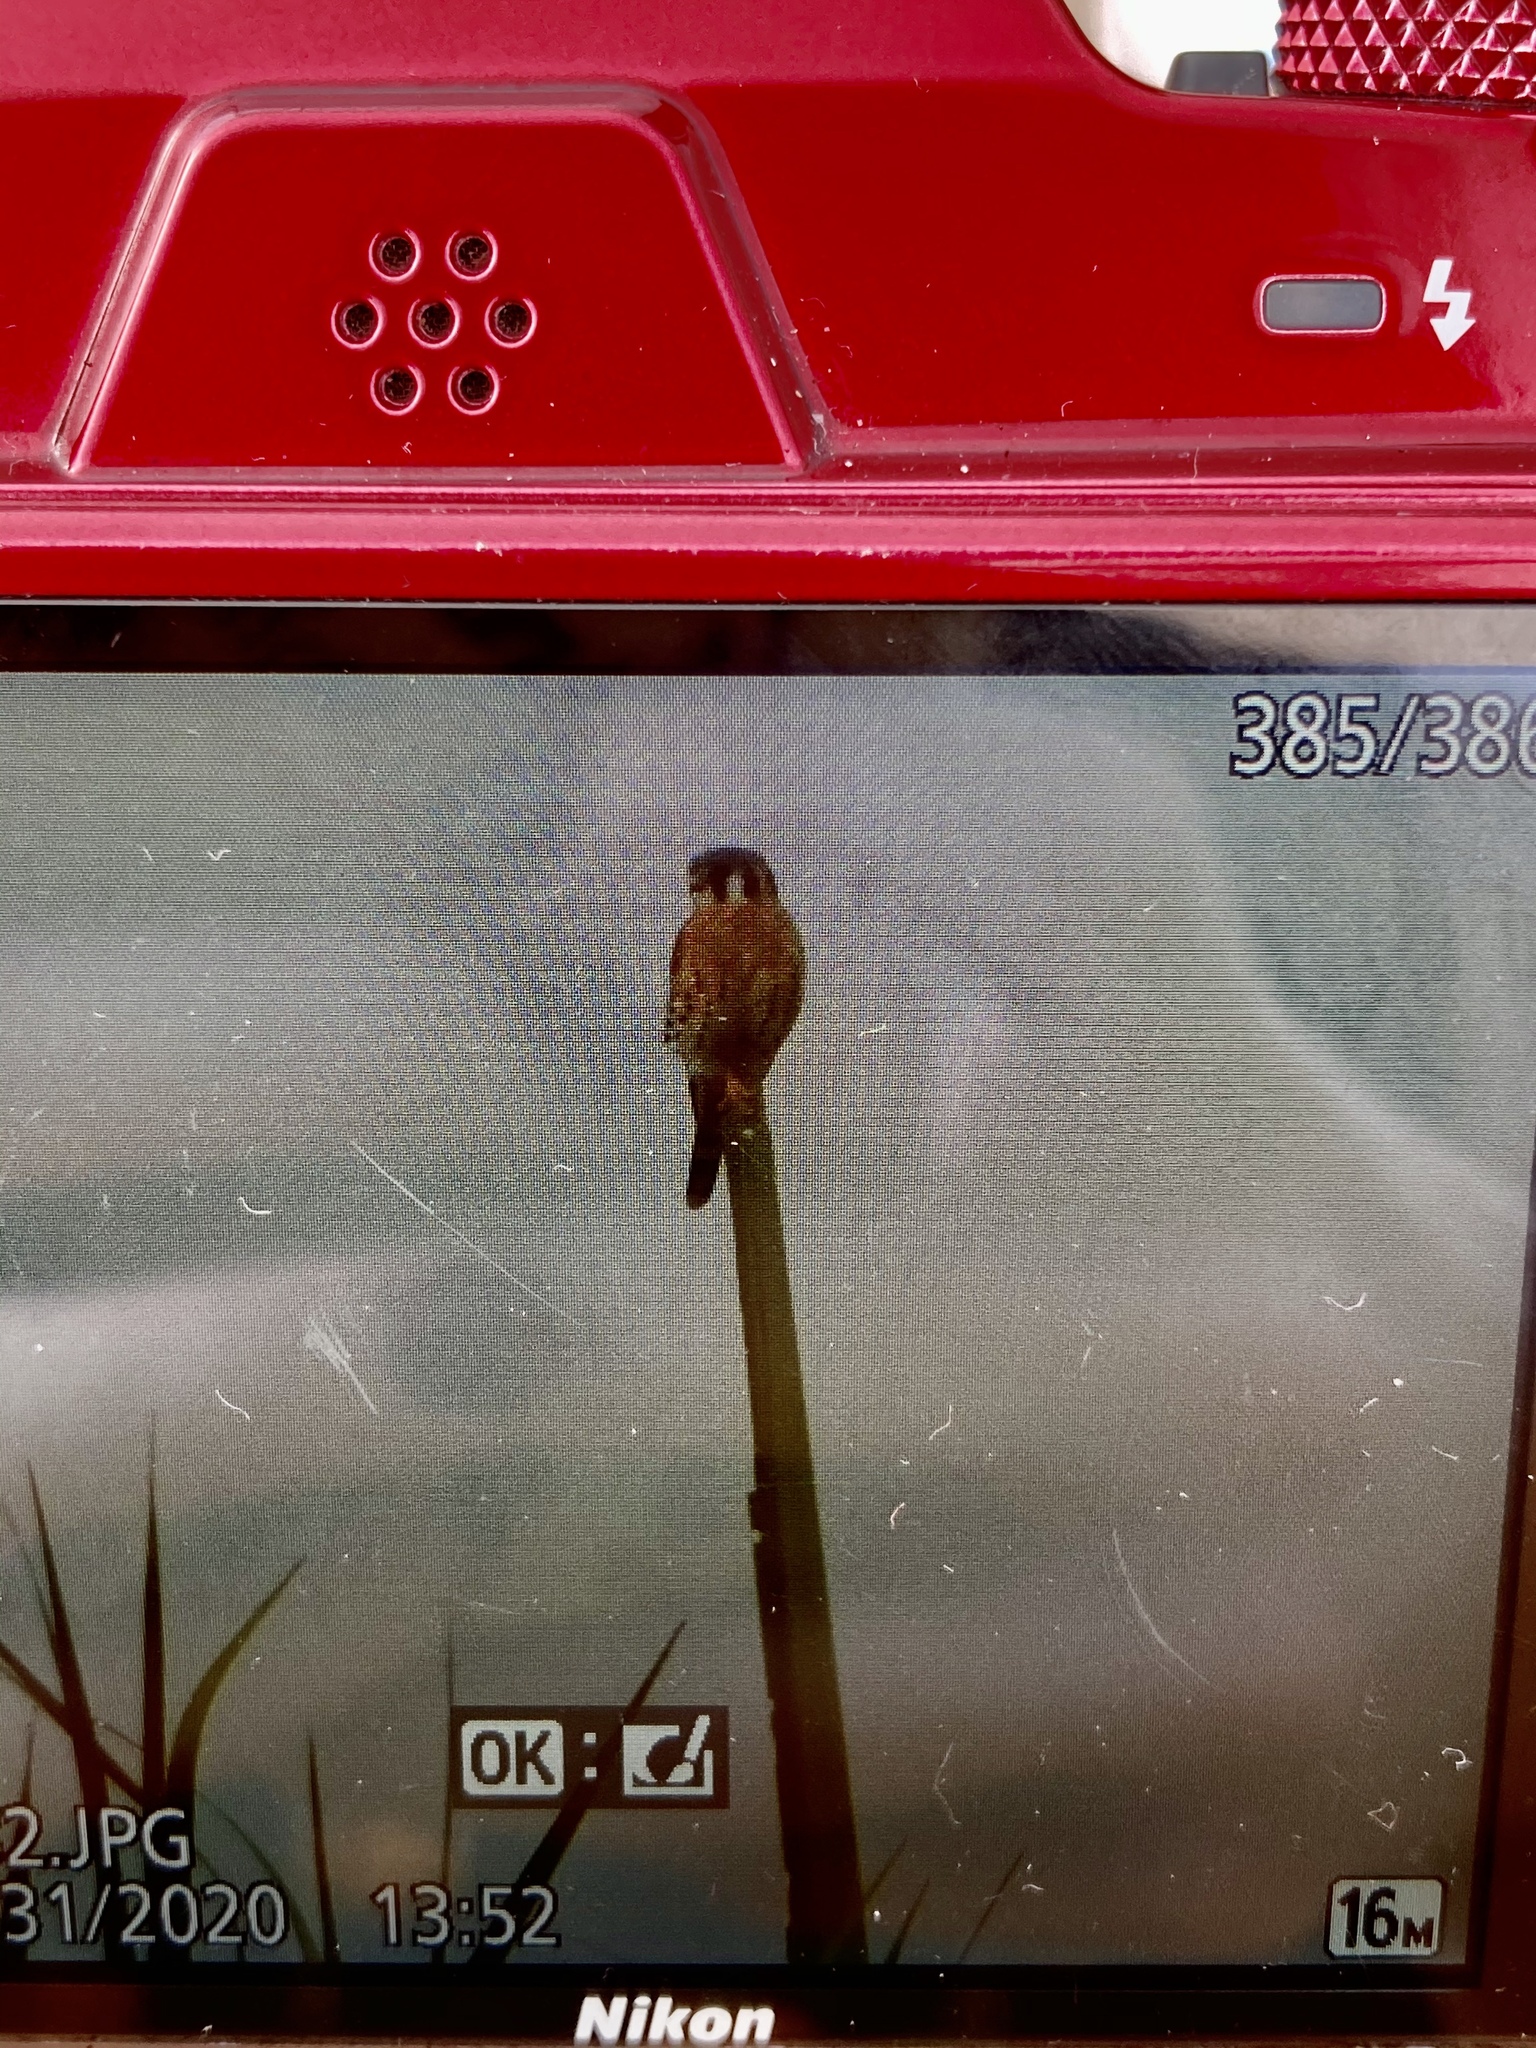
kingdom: Animalia
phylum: Chordata
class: Aves
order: Falconiformes
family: Falconidae
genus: Falco
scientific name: Falco sparverius
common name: American kestrel
